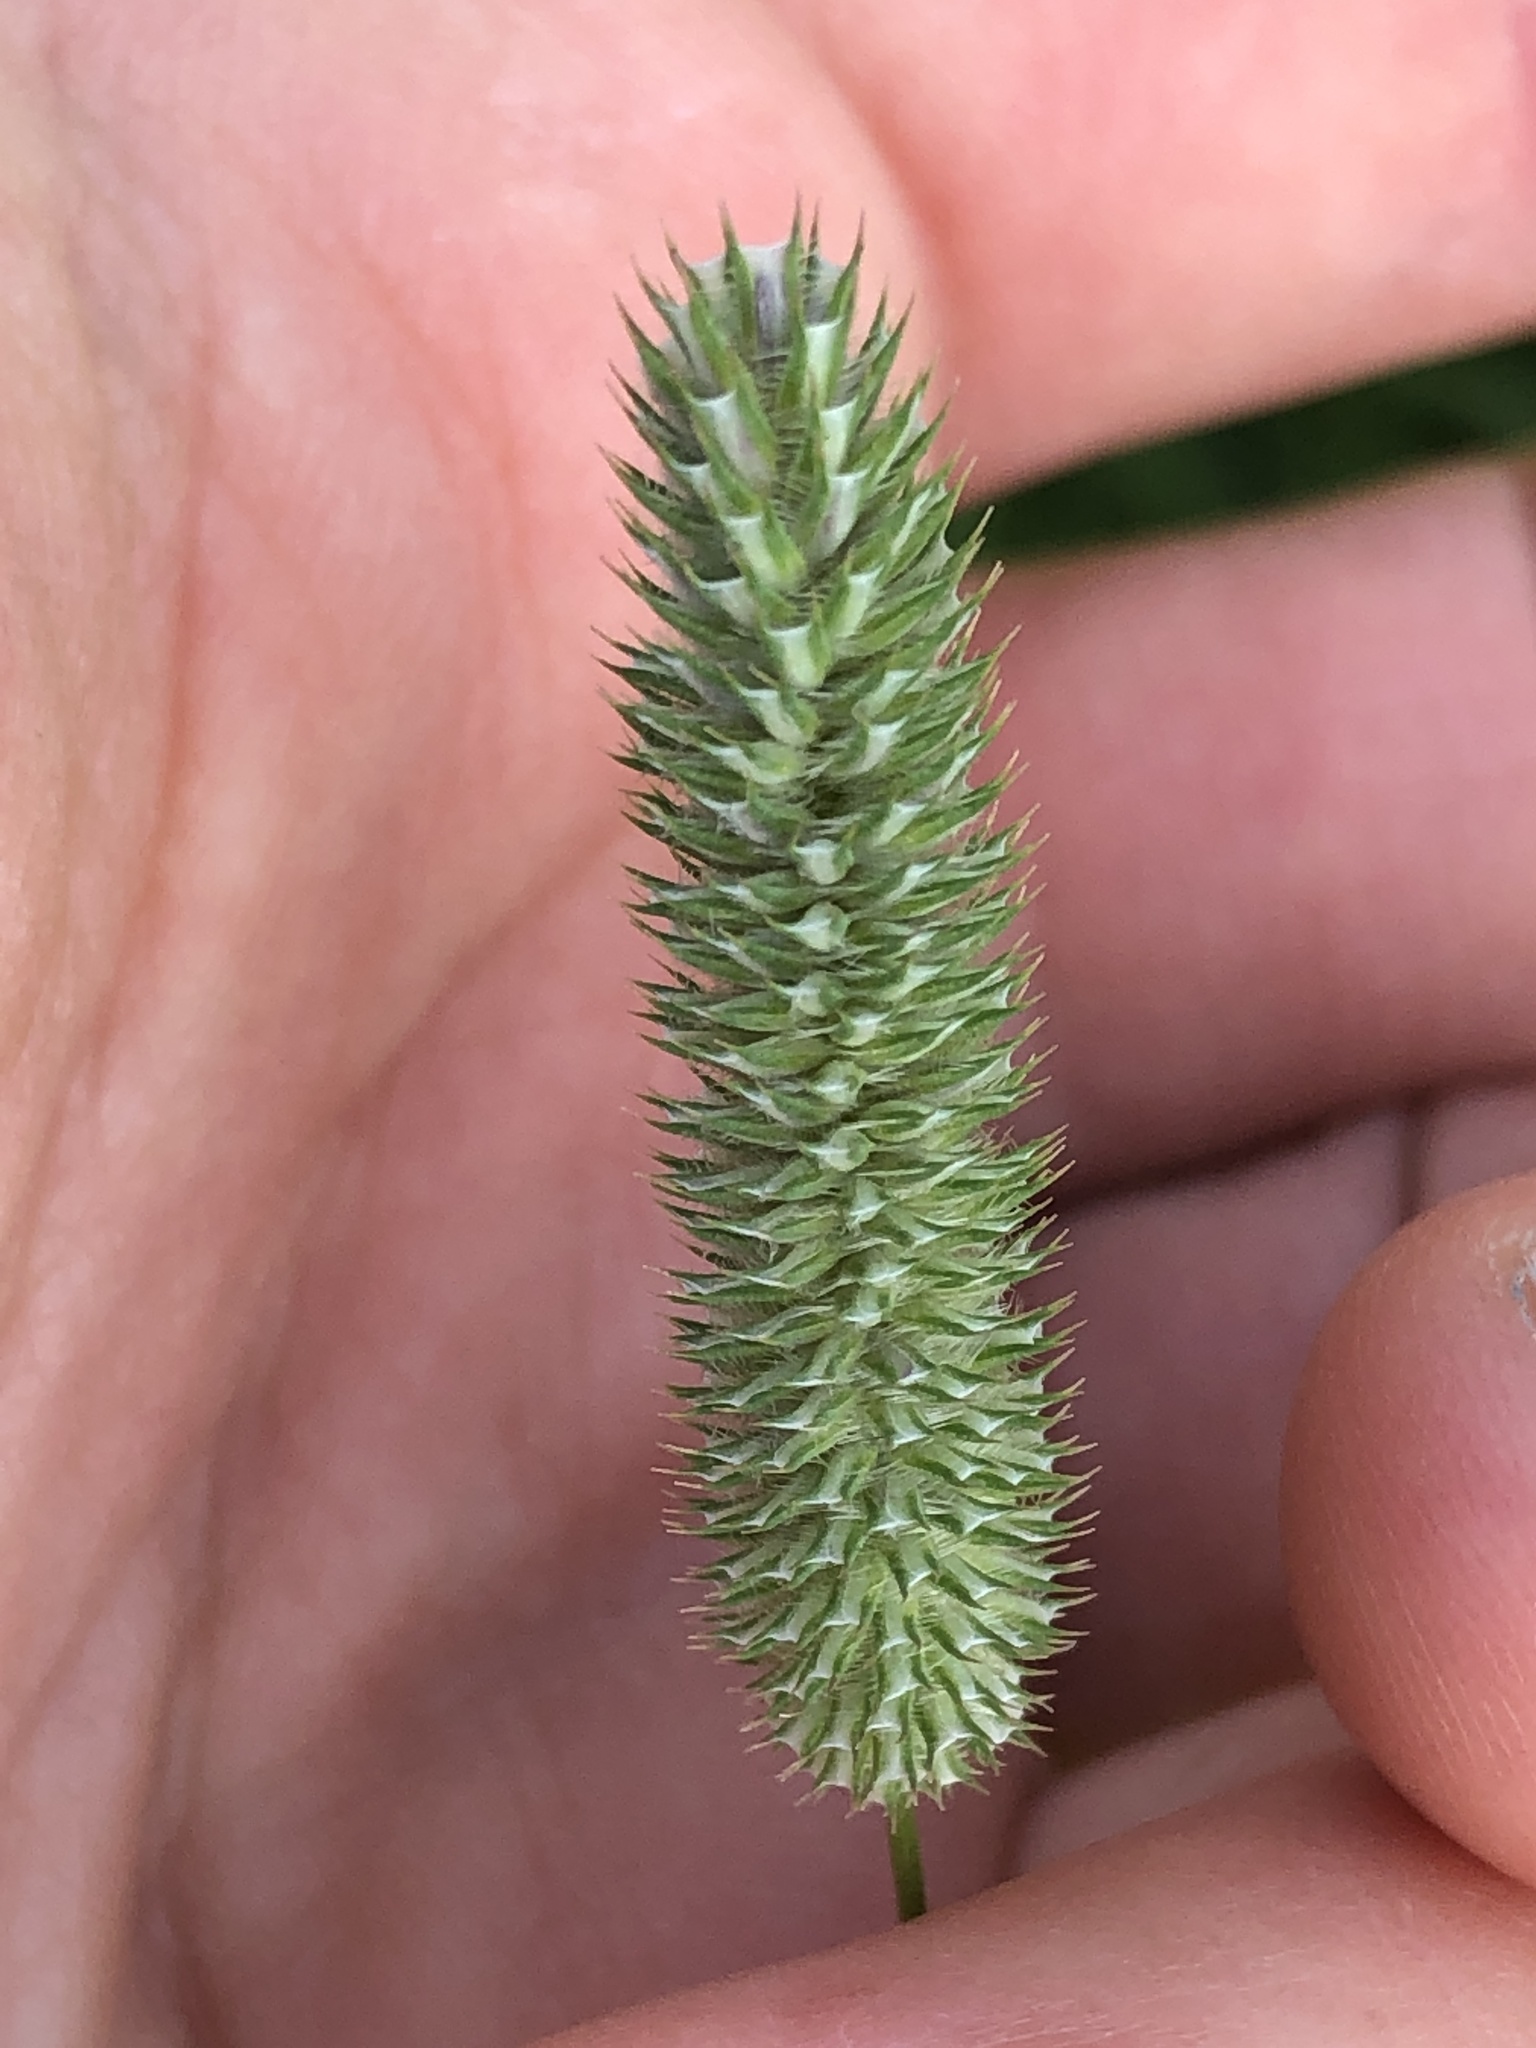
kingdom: Plantae
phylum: Tracheophyta
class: Liliopsida
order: Poales
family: Poaceae
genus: Phleum
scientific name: Phleum pratense
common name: Timothy grass
